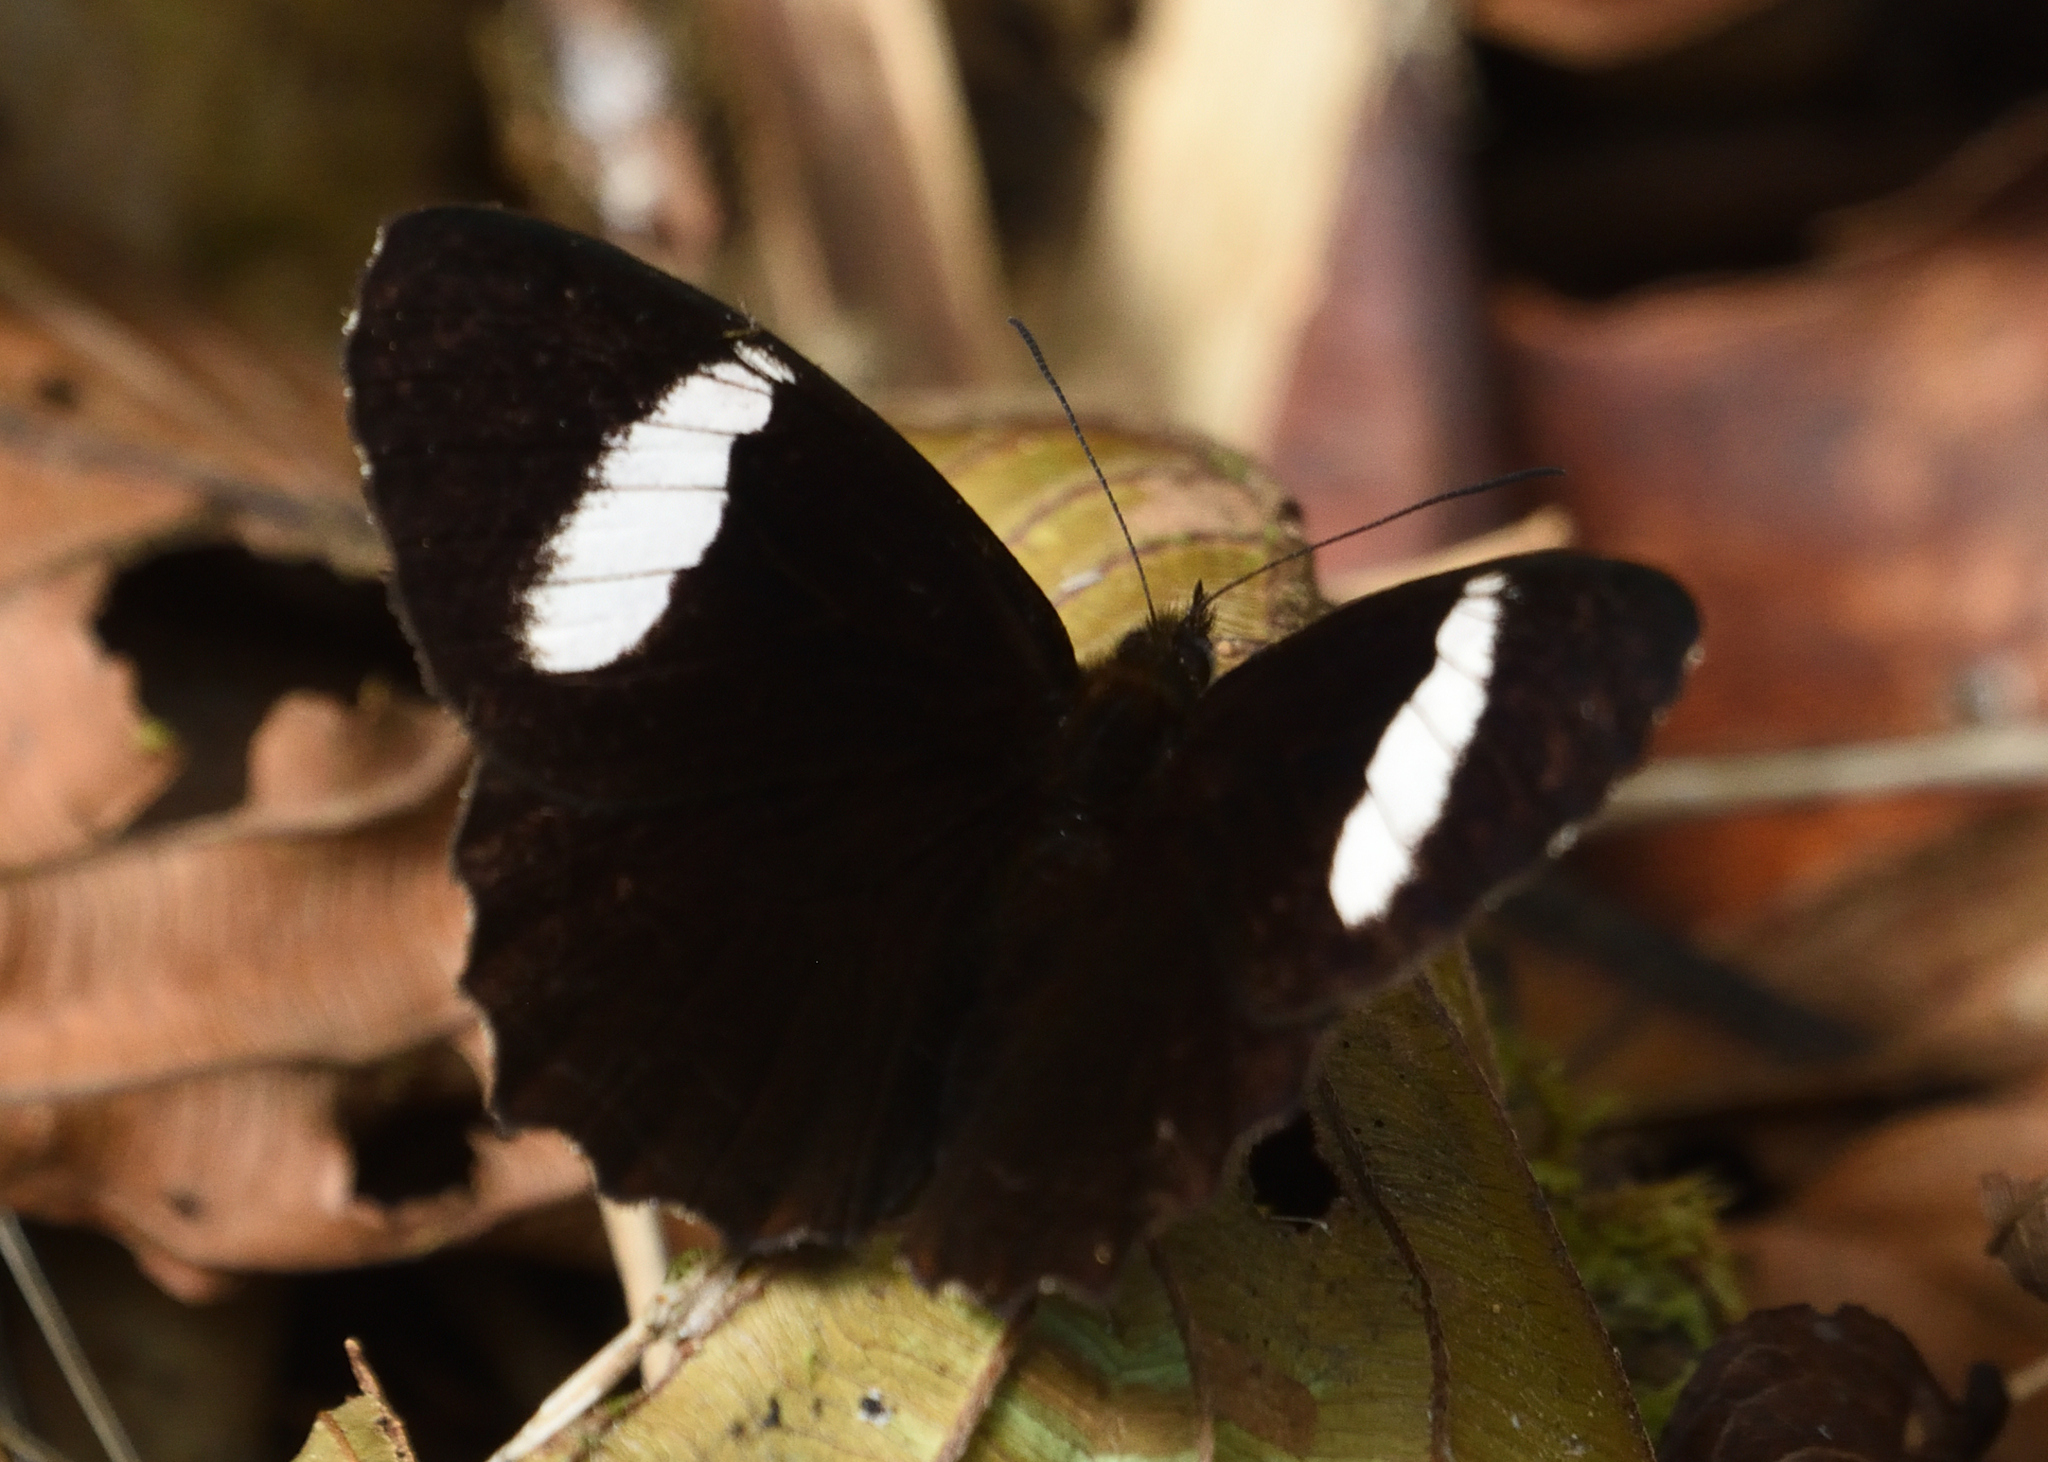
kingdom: Animalia
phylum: Arthropoda
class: Insecta
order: Lepidoptera
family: Nymphalidae
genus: Pedaliodes
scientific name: Pedaliodes peucestas
